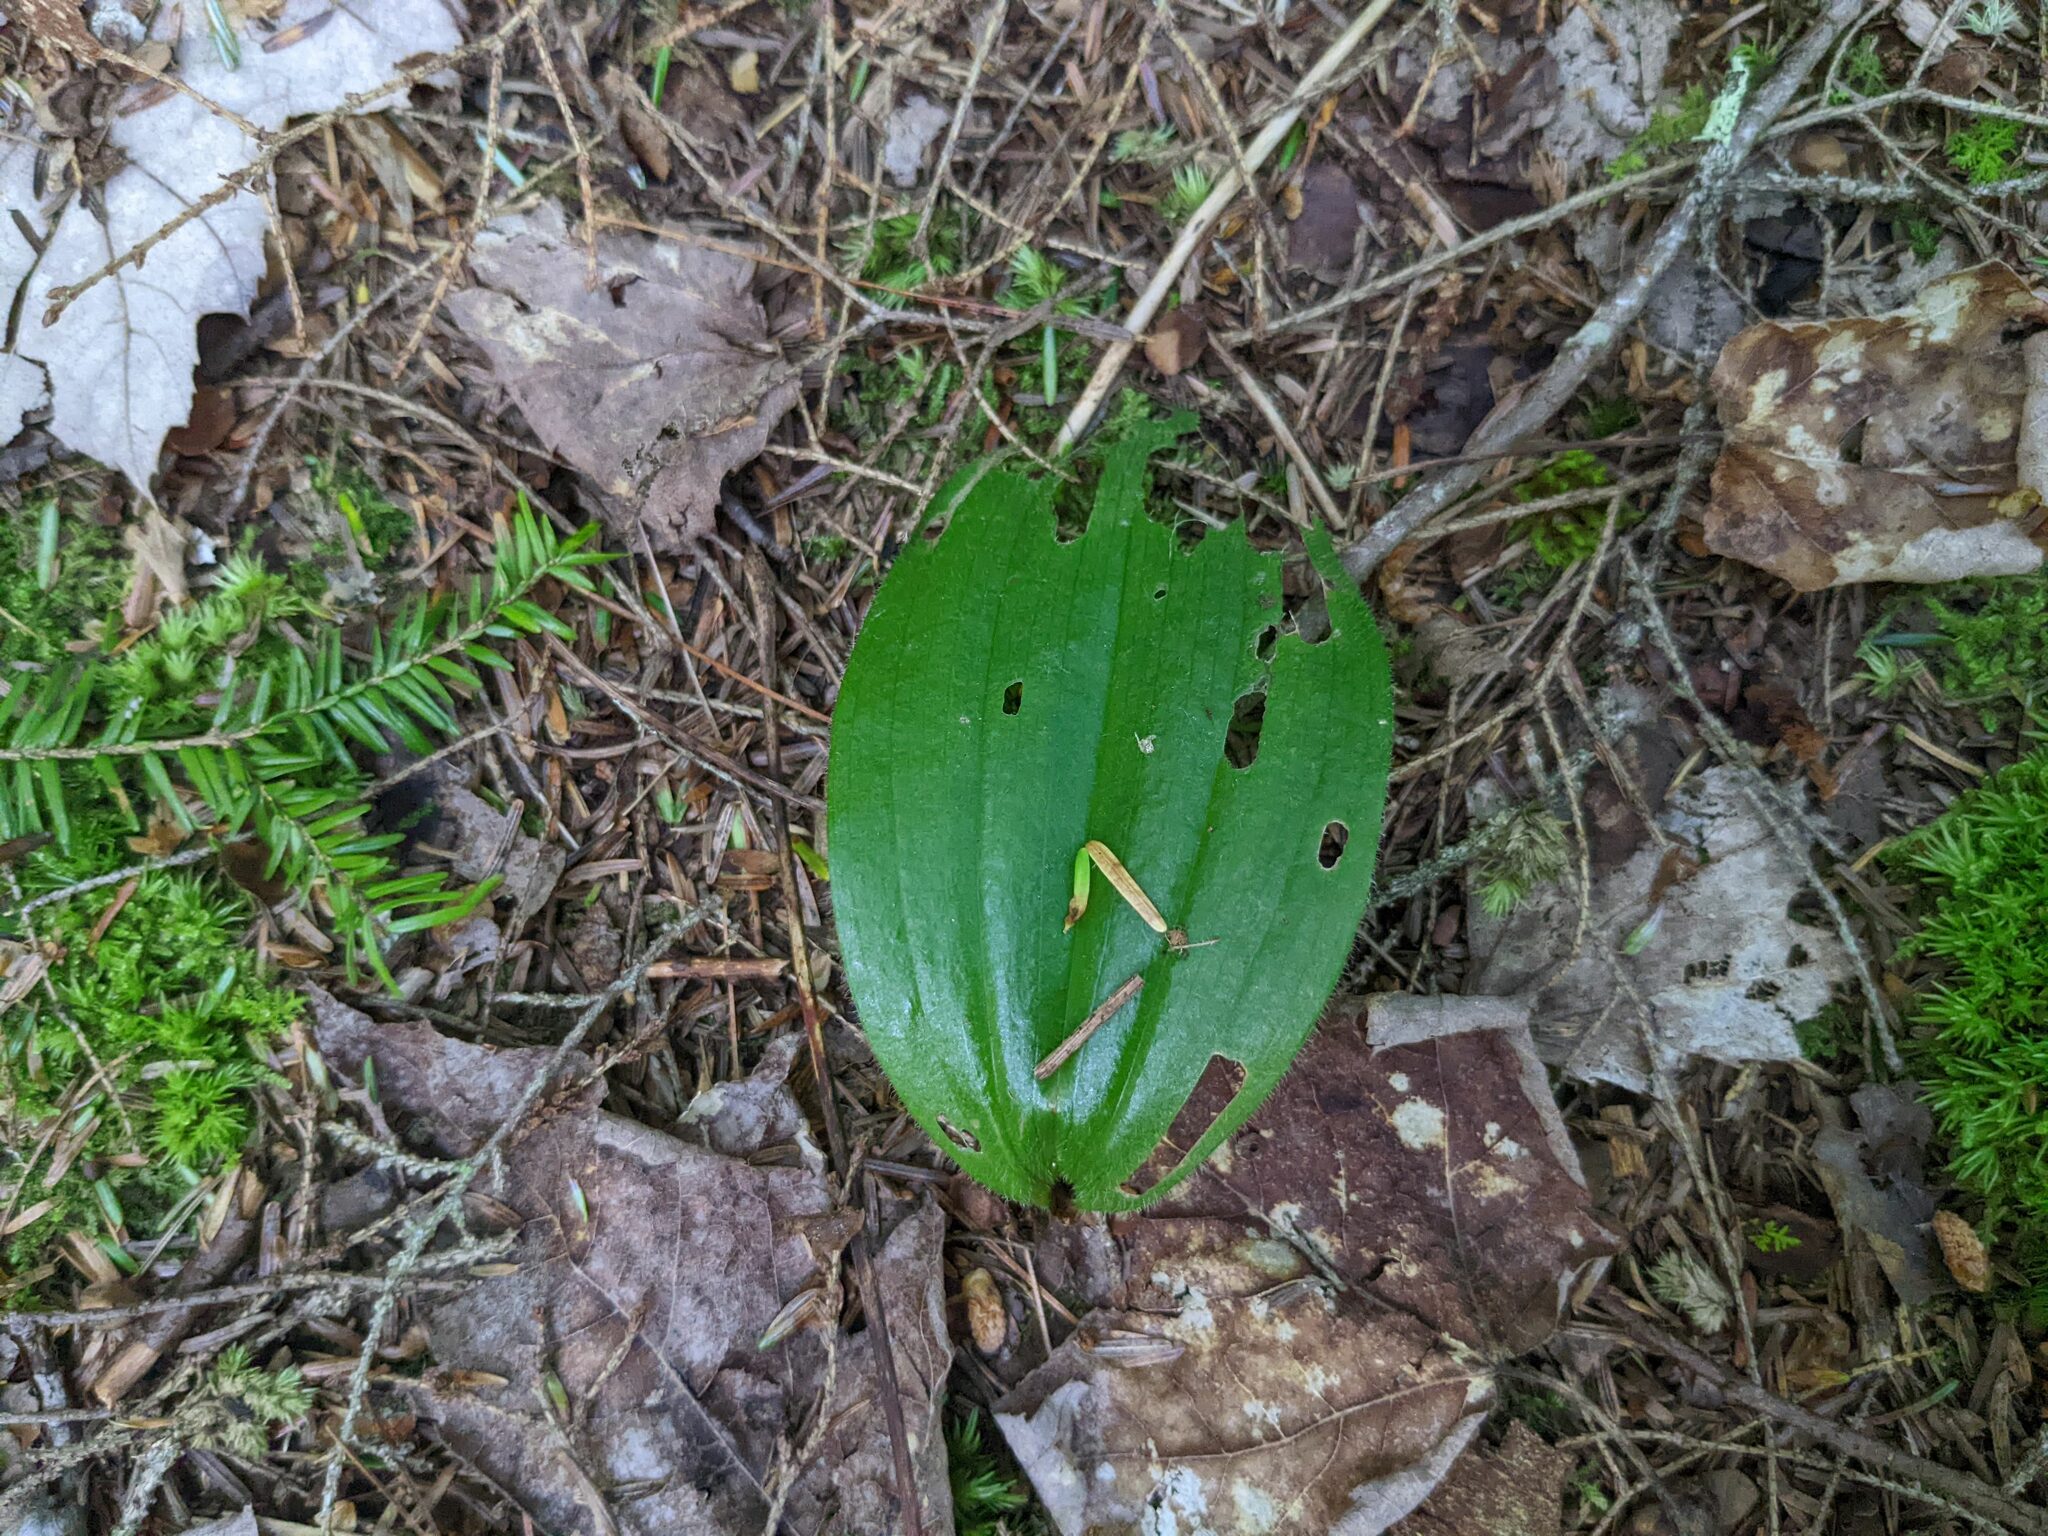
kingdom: Plantae
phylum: Tracheophyta
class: Liliopsida
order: Asparagales
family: Orchidaceae
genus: Cypripedium
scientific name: Cypripedium acaule
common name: Pink lady's-slipper
